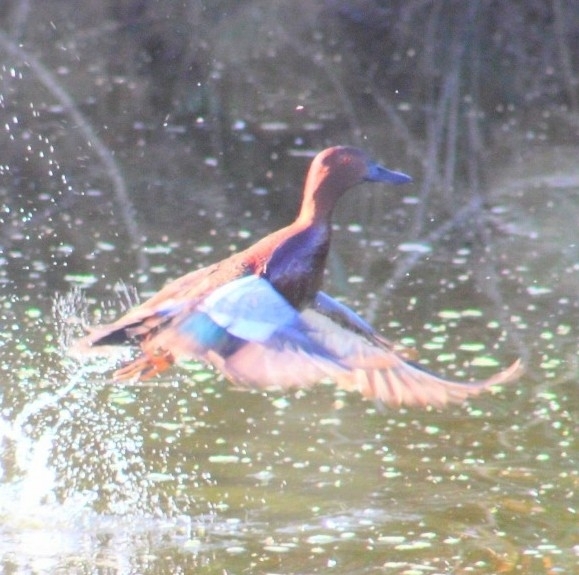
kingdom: Animalia
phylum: Chordata
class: Aves
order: Anseriformes
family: Anatidae
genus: Spatula
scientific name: Spatula cyanoptera
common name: Cinnamon teal
